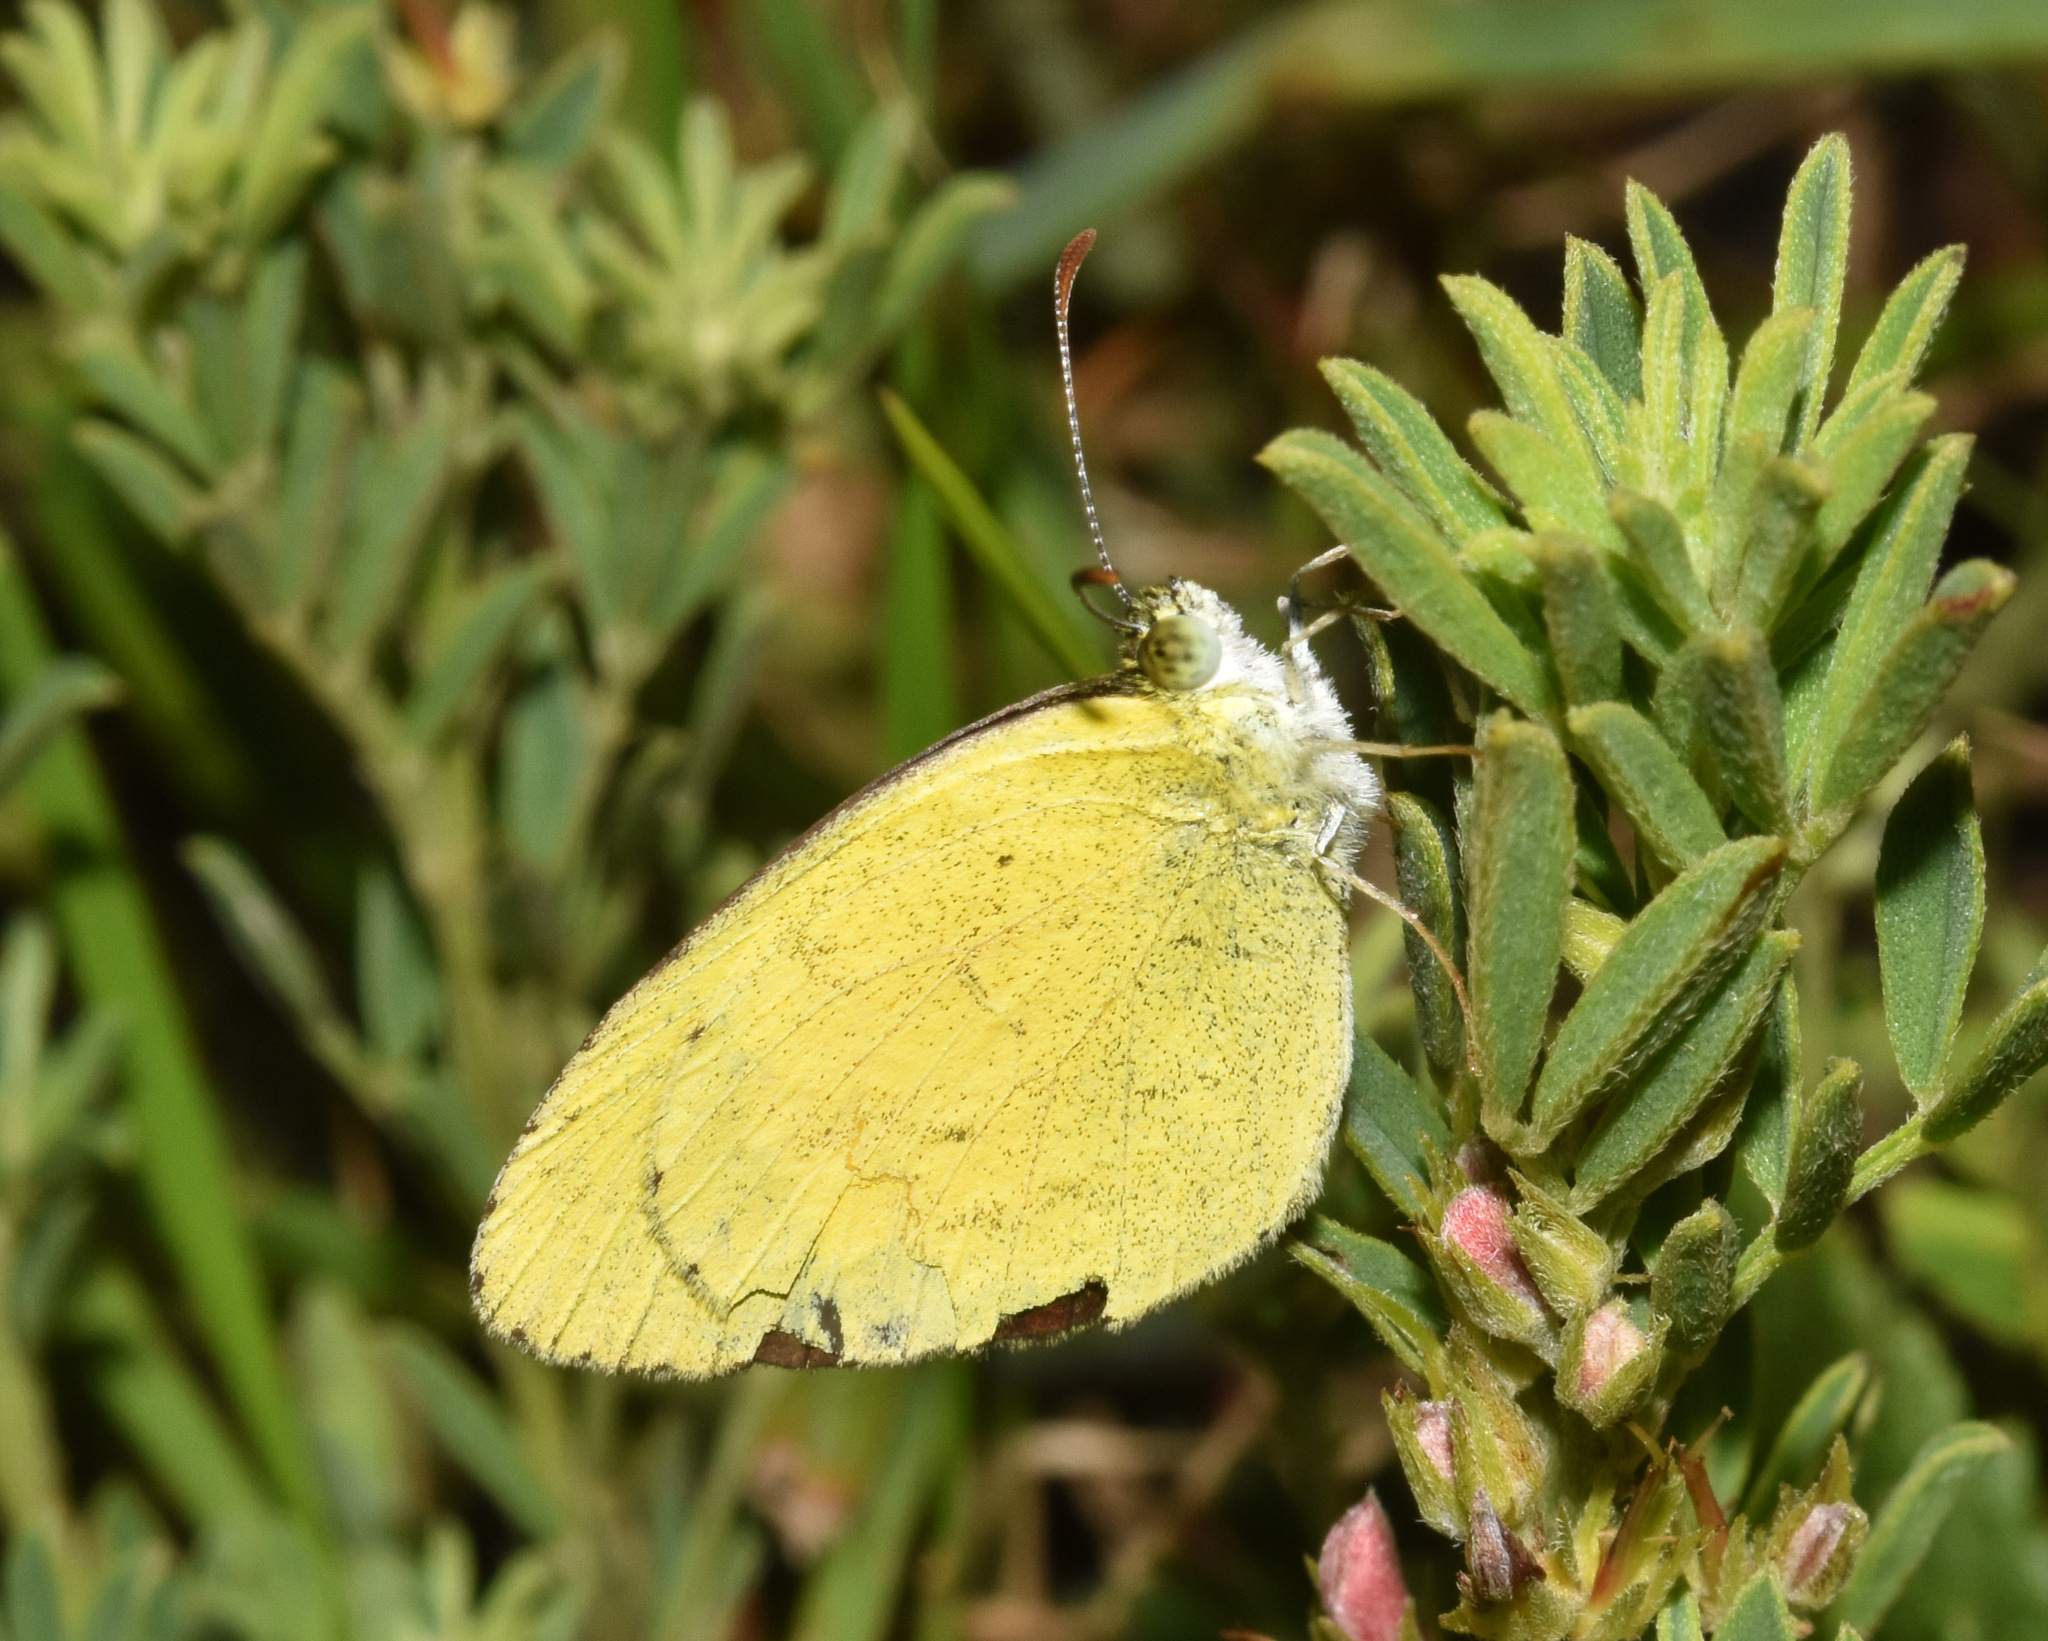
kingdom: Animalia
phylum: Arthropoda
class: Insecta
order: Lepidoptera
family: Pieridae
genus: Eurema
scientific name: Eurema brigitta
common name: Small grass yellow
